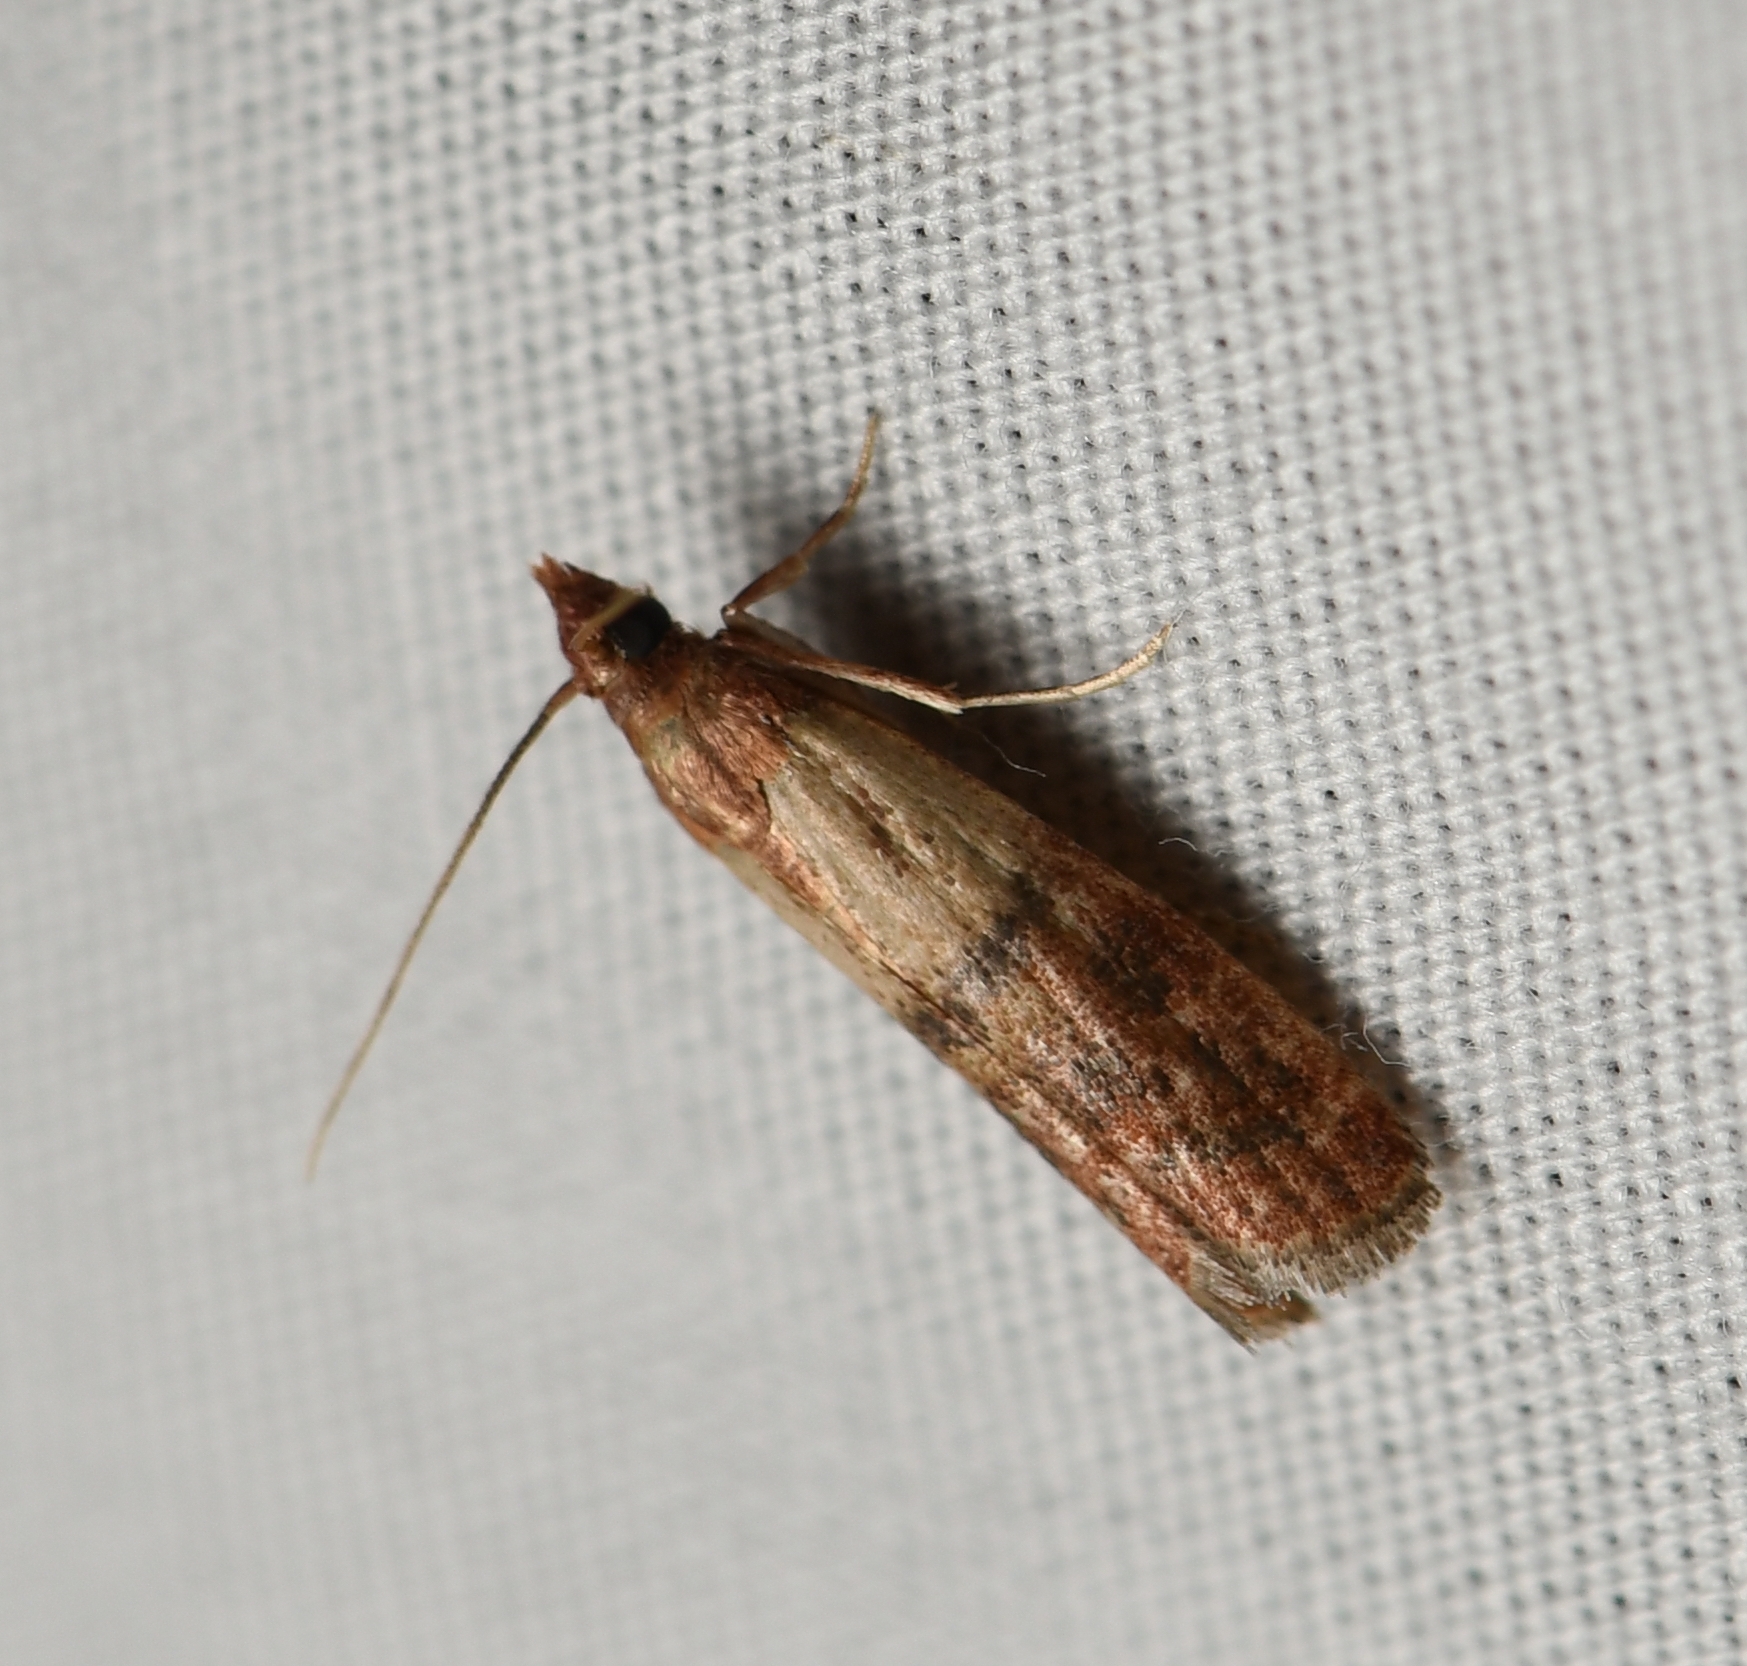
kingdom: Animalia
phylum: Arthropoda
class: Insecta
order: Lepidoptera
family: Pyralidae
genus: Plodia
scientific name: Plodia interpunctella
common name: Indian meal moth
